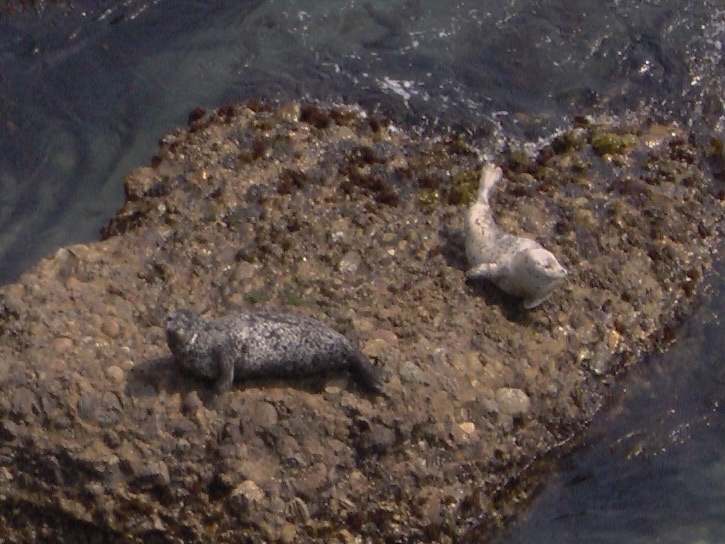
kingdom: Animalia
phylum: Chordata
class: Mammalia
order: Carnivora
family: Phocidae
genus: Phoca
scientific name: Phoca vitulina
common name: Harbor seal
